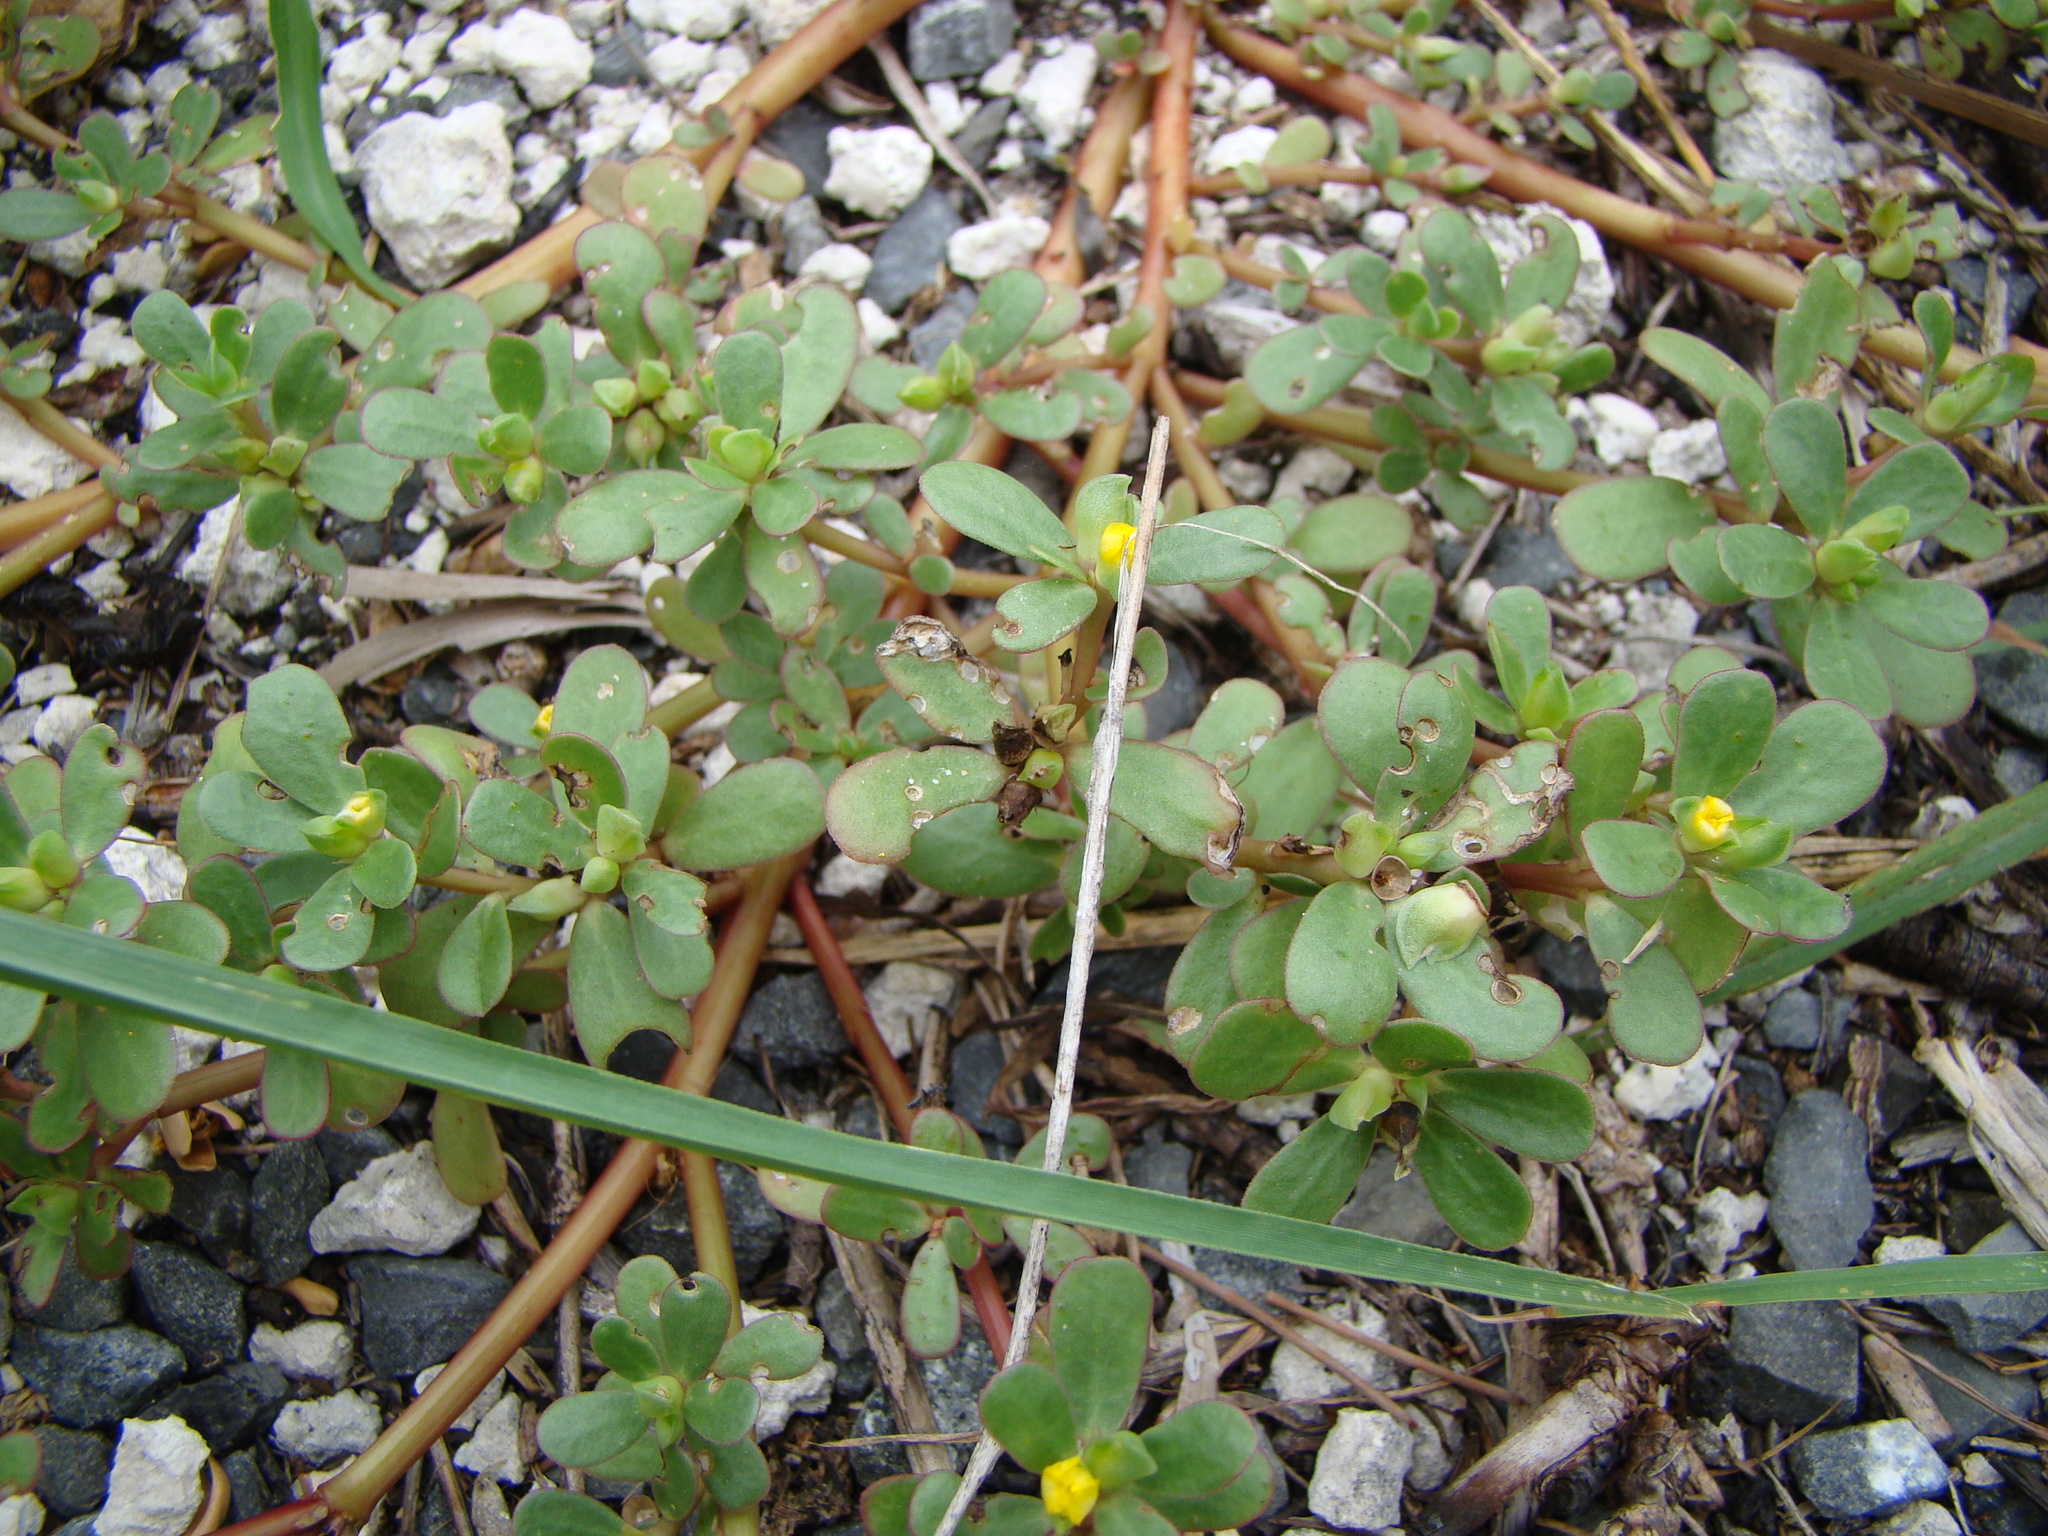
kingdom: Plantae
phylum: Tracheophyta
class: Magnoliopsida
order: Caryophyllales
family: Portulacaceae
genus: Portulaca
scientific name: Portulaca oleracea
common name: Common purslane
